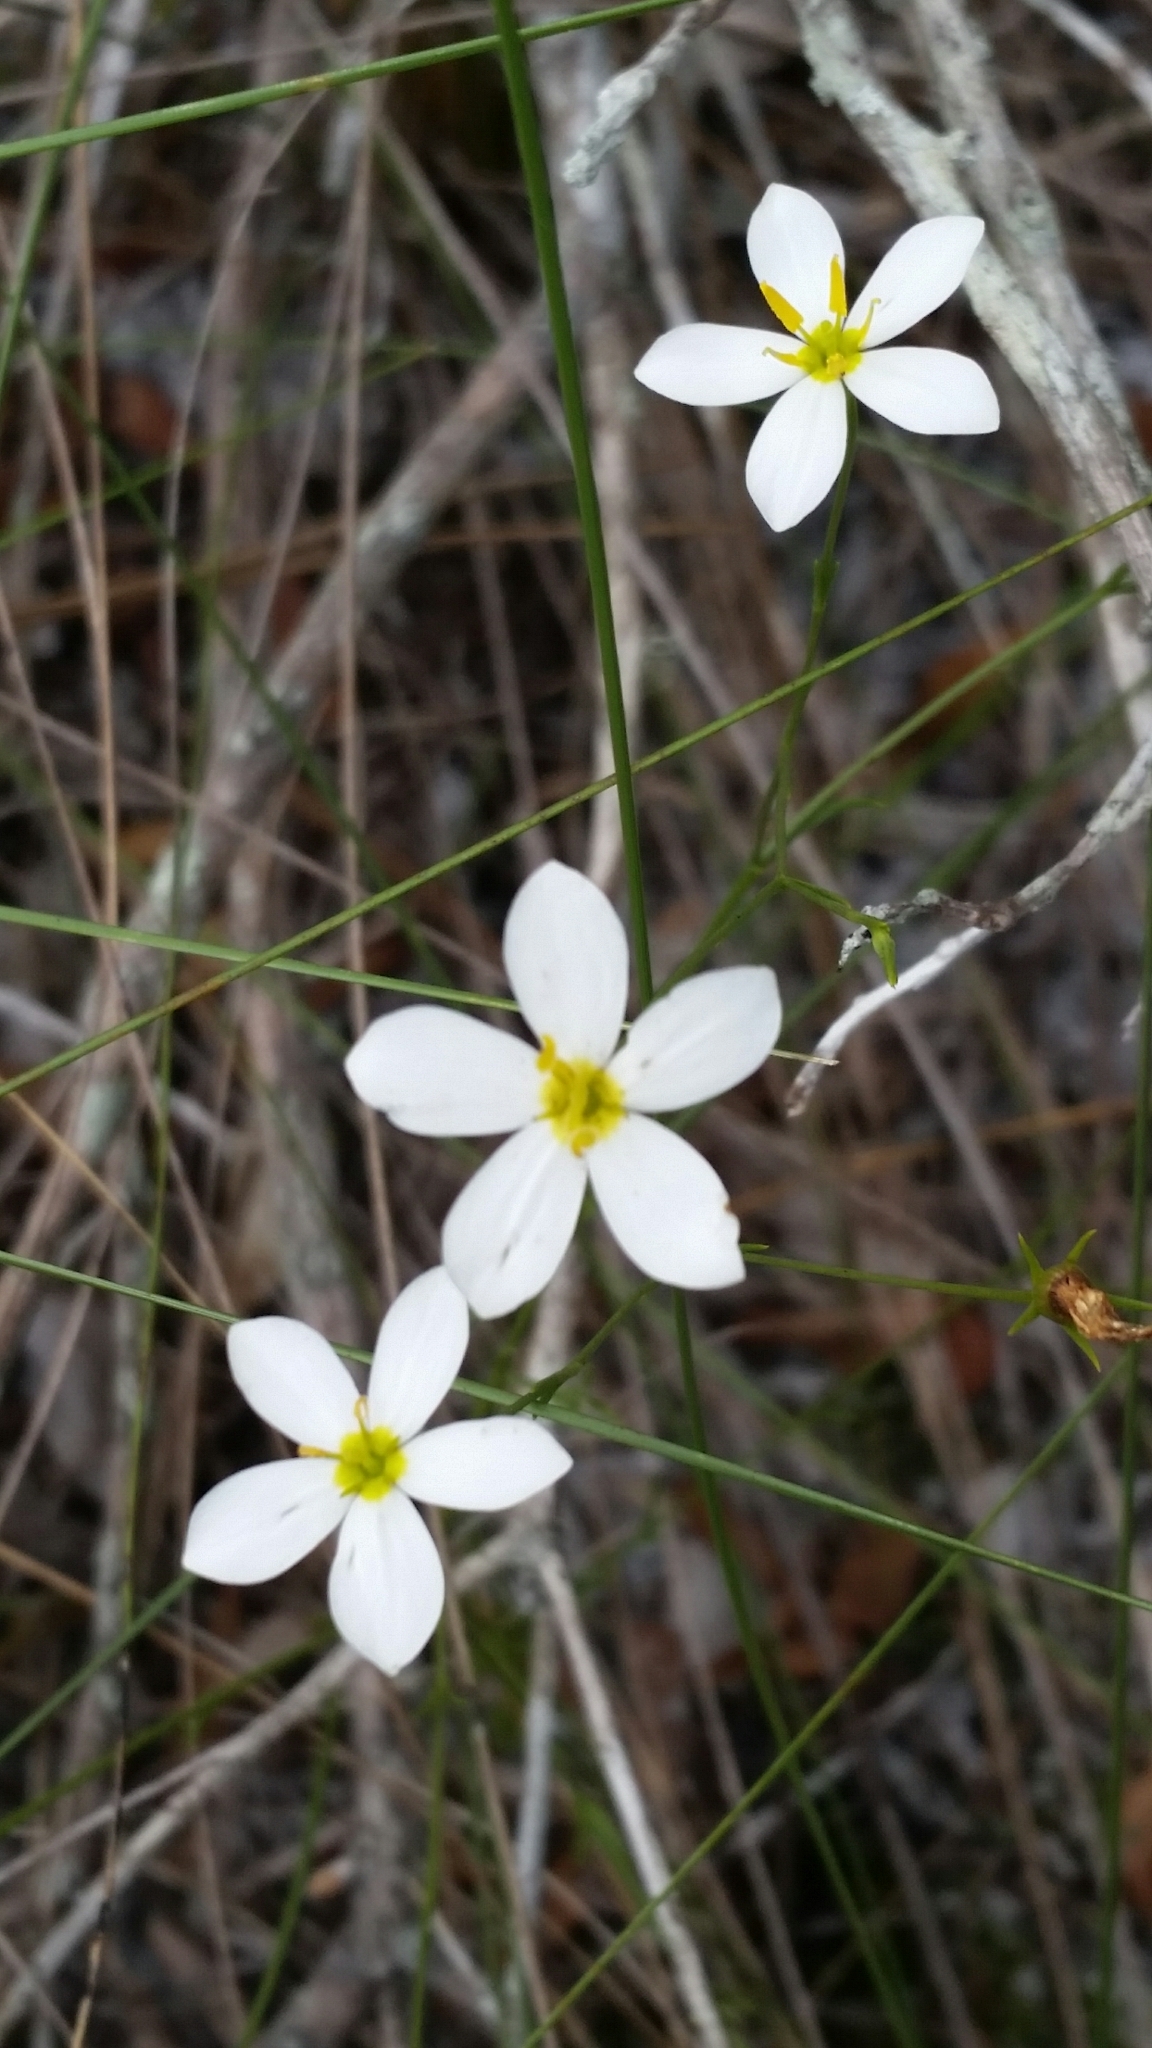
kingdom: Plantae
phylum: Tracheophyta
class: Magnoliopsida
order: Gentianales
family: Gentianaceae
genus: Sabatia
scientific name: Sabatia brevifolia
